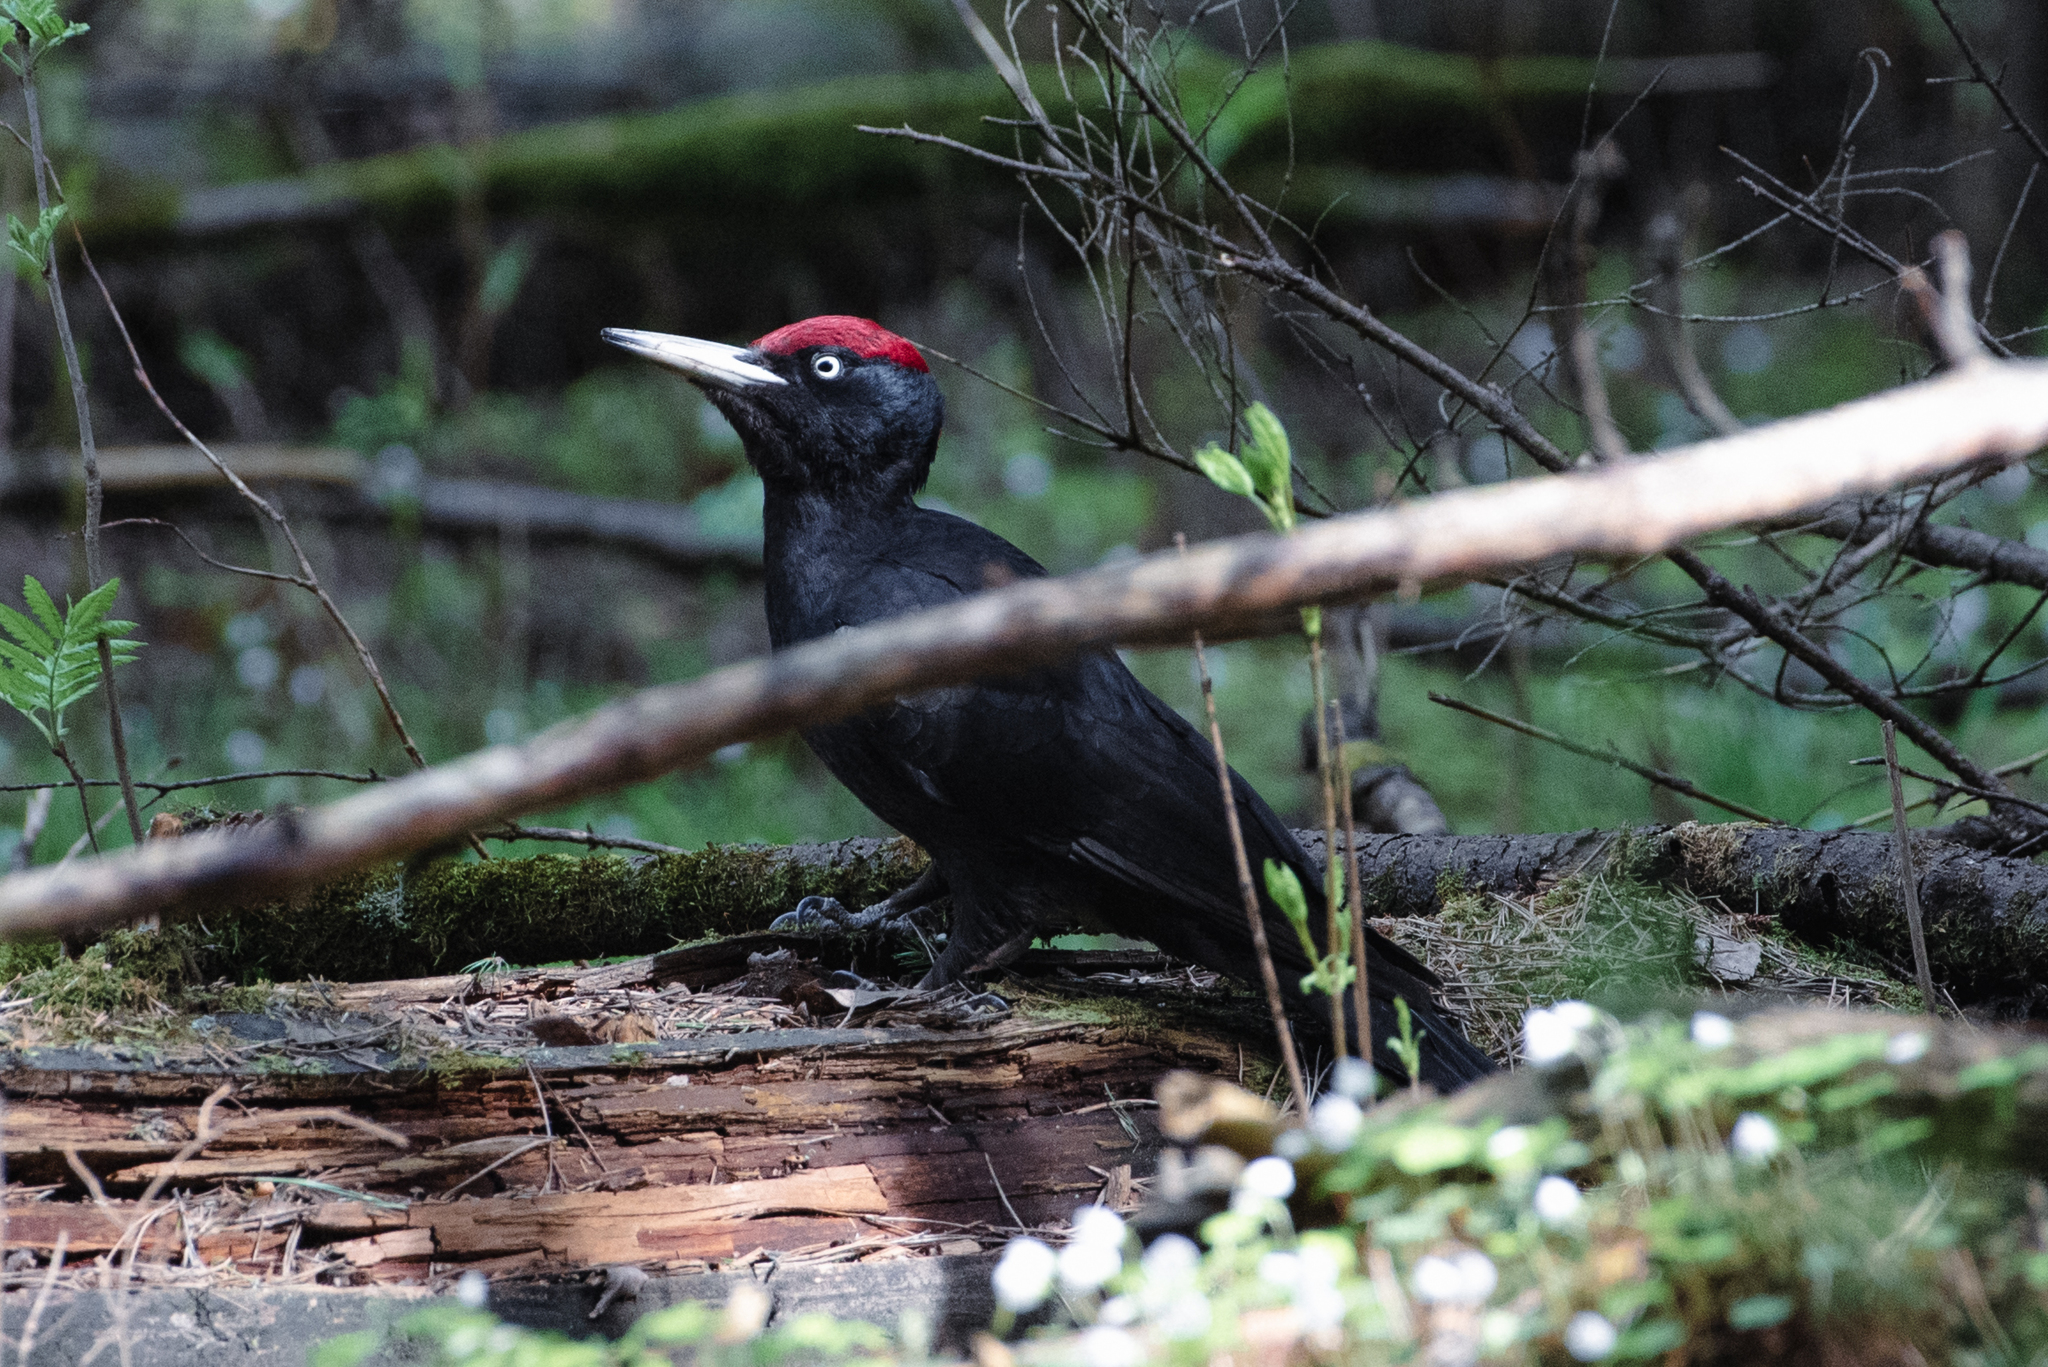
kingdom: Animalia
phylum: Chordata
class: Aves
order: Piciformes
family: Picidae
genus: Dryocopus
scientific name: Dryocopus martius
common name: Black woodpecker
